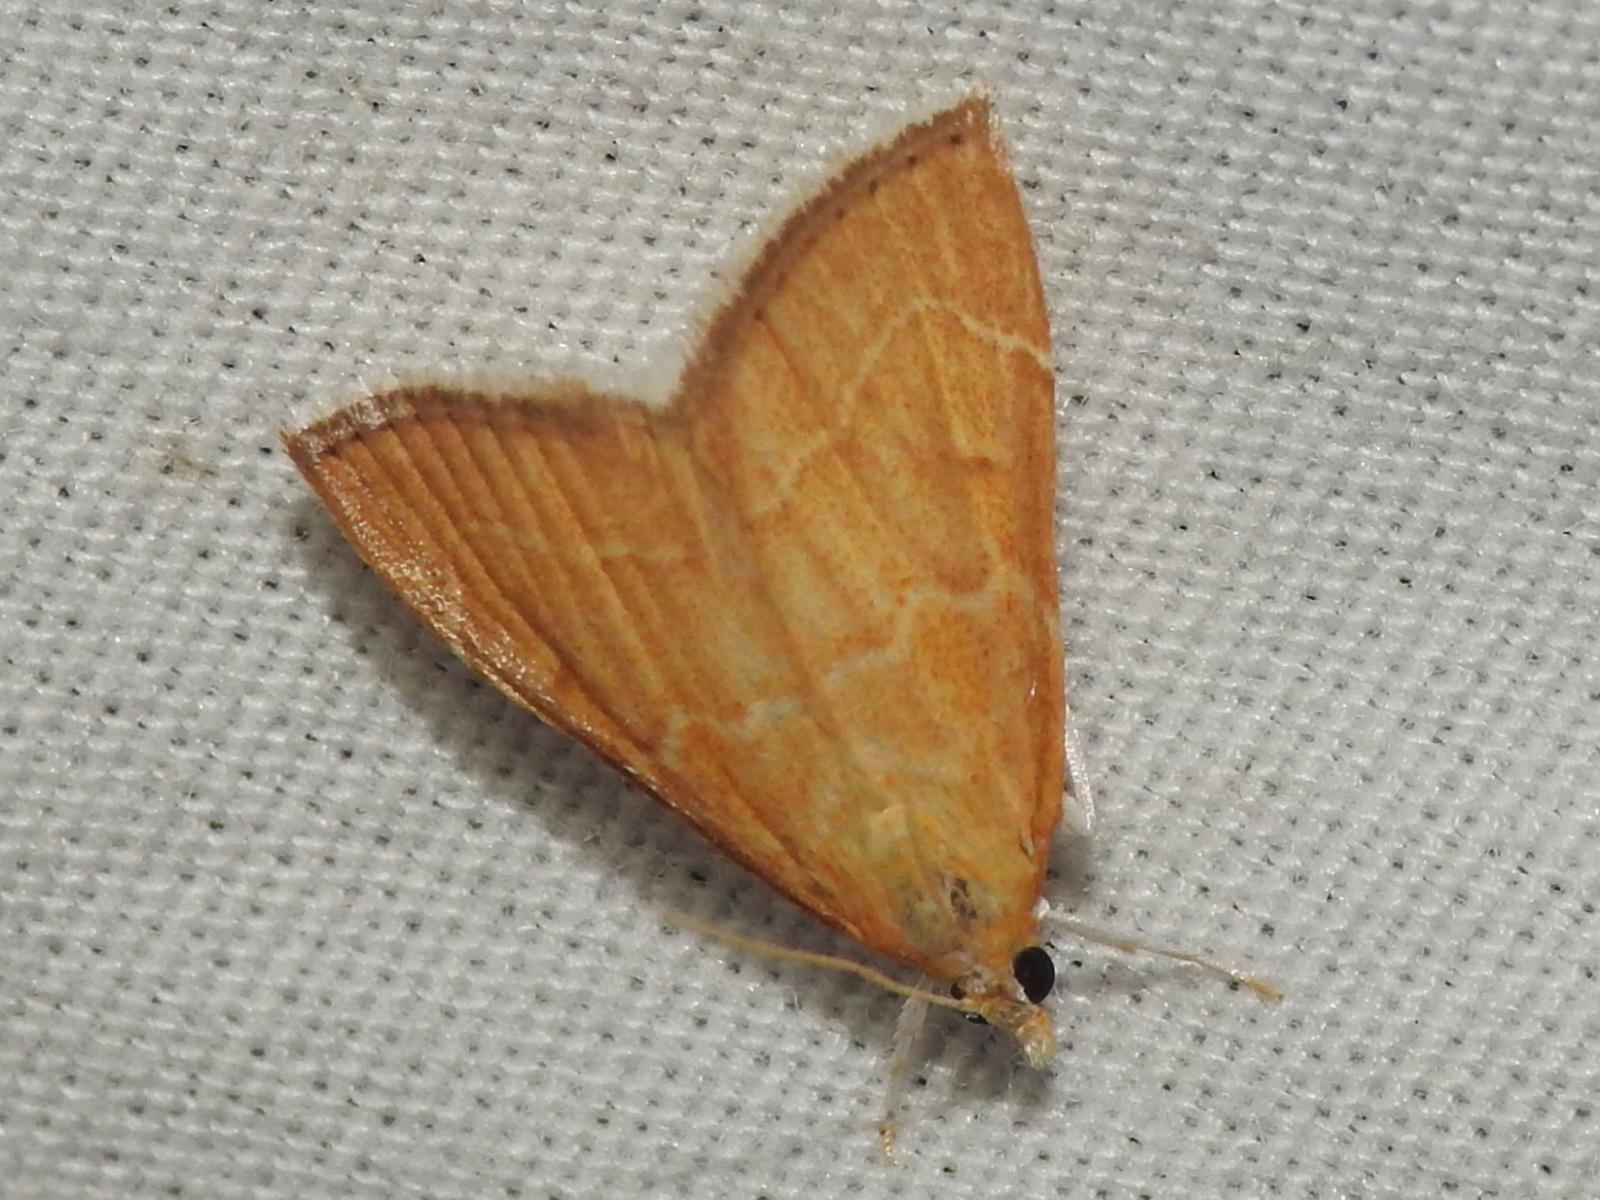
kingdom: Animalia
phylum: Arthropoda
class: Insecta
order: Lepidoptera
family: Crambidae
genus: Glaphyria
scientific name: Glaphyria invisalis
